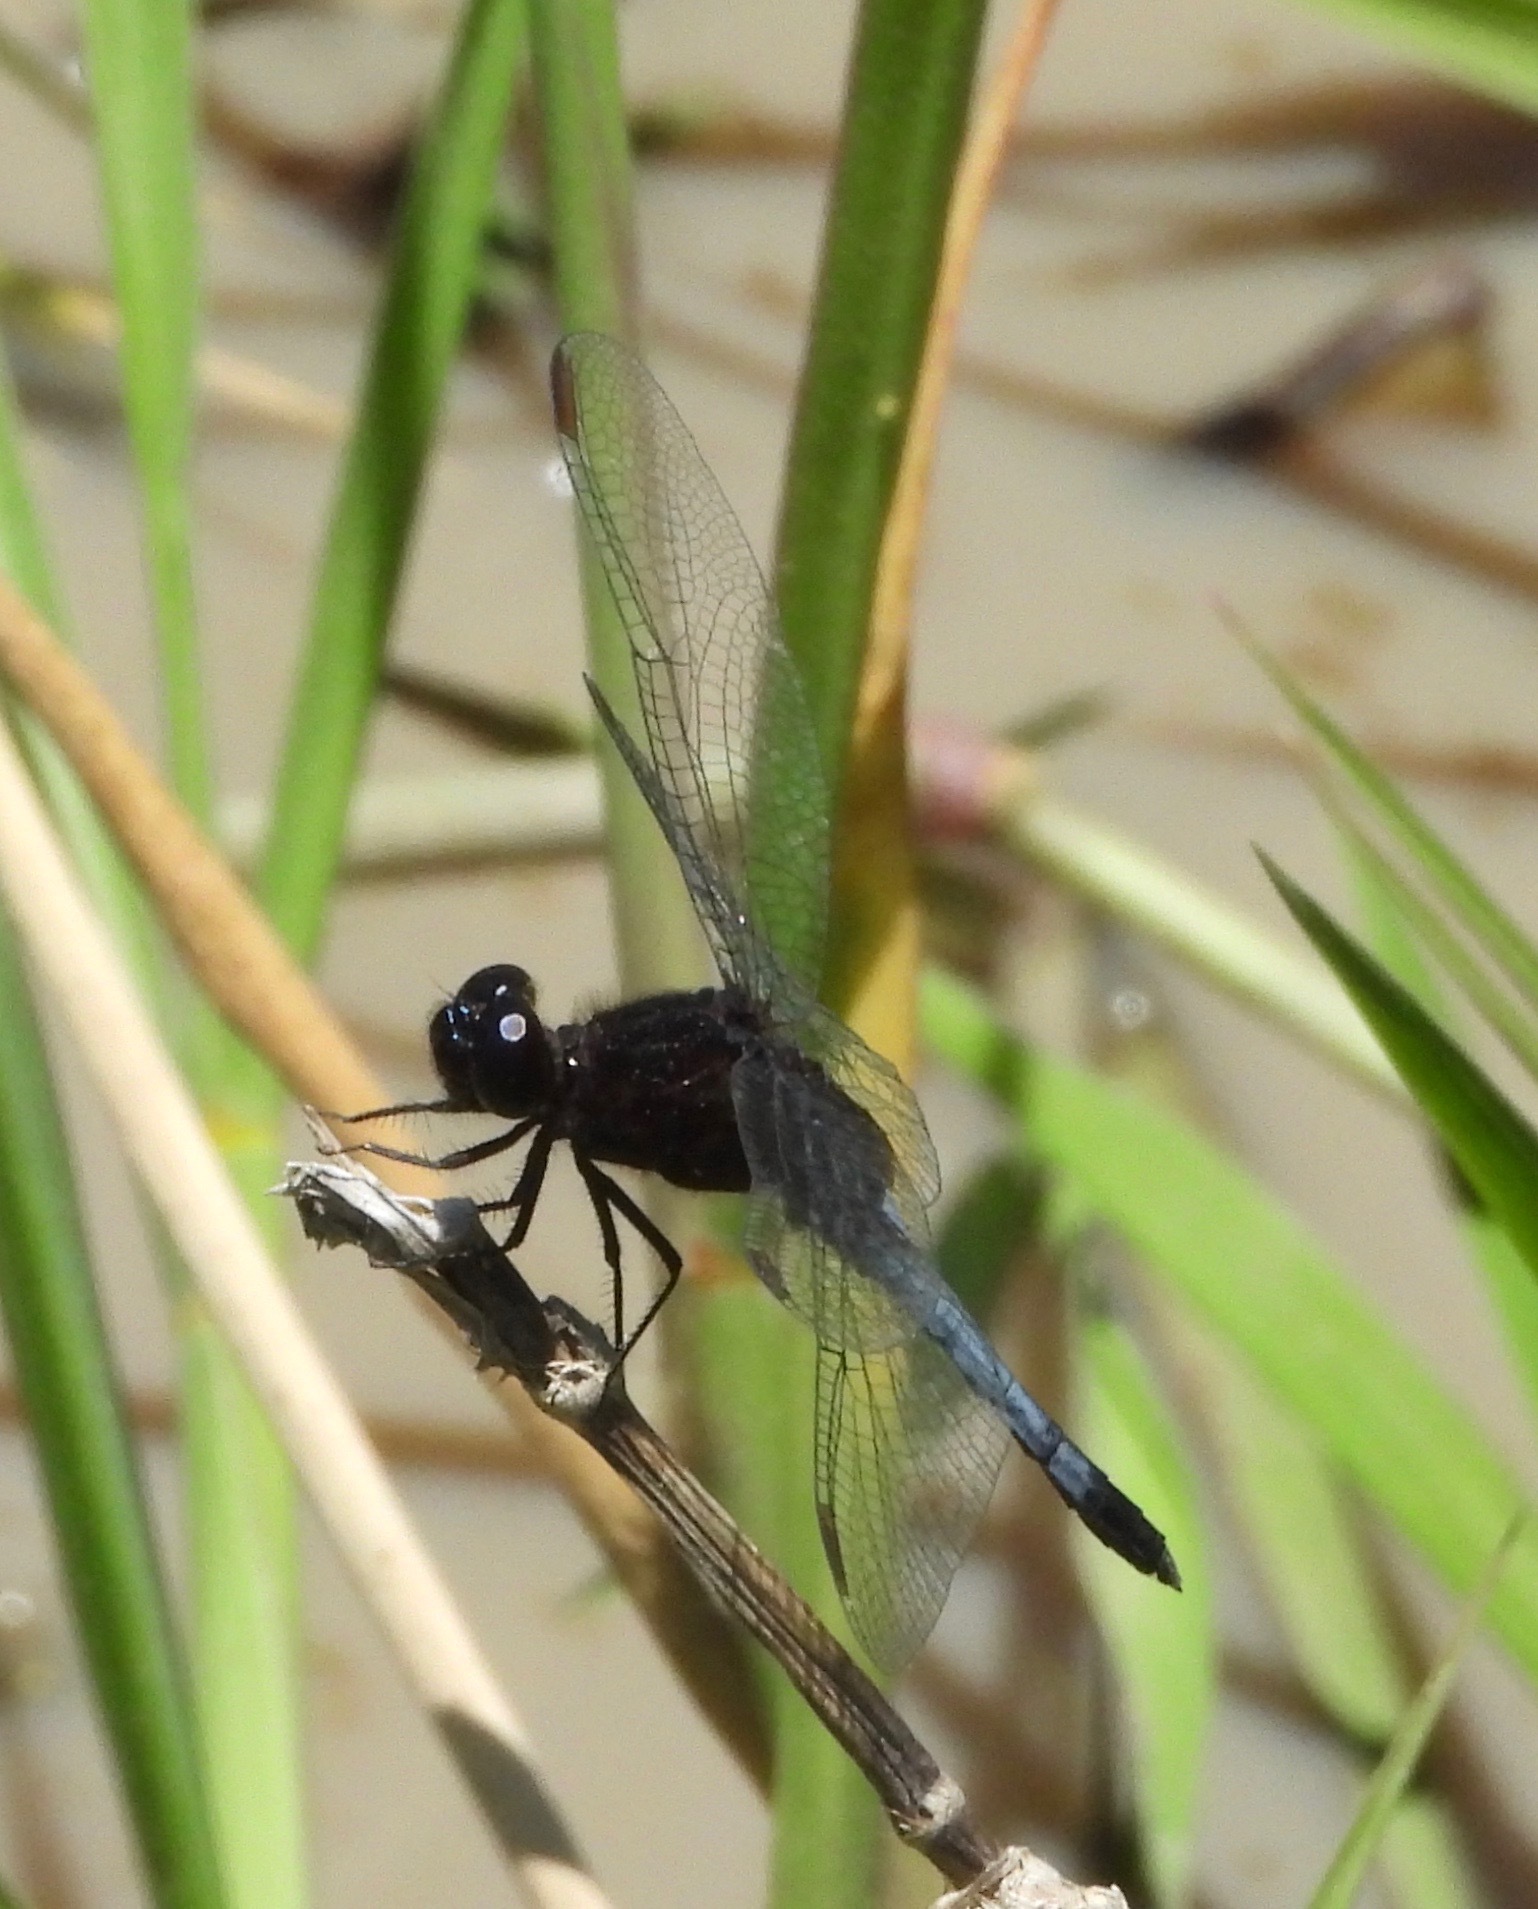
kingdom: Animalia
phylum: Arthropoda
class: Insecta
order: Odonata
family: Libellulidae
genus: Erythrodiplax
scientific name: Erythrodiplax media
